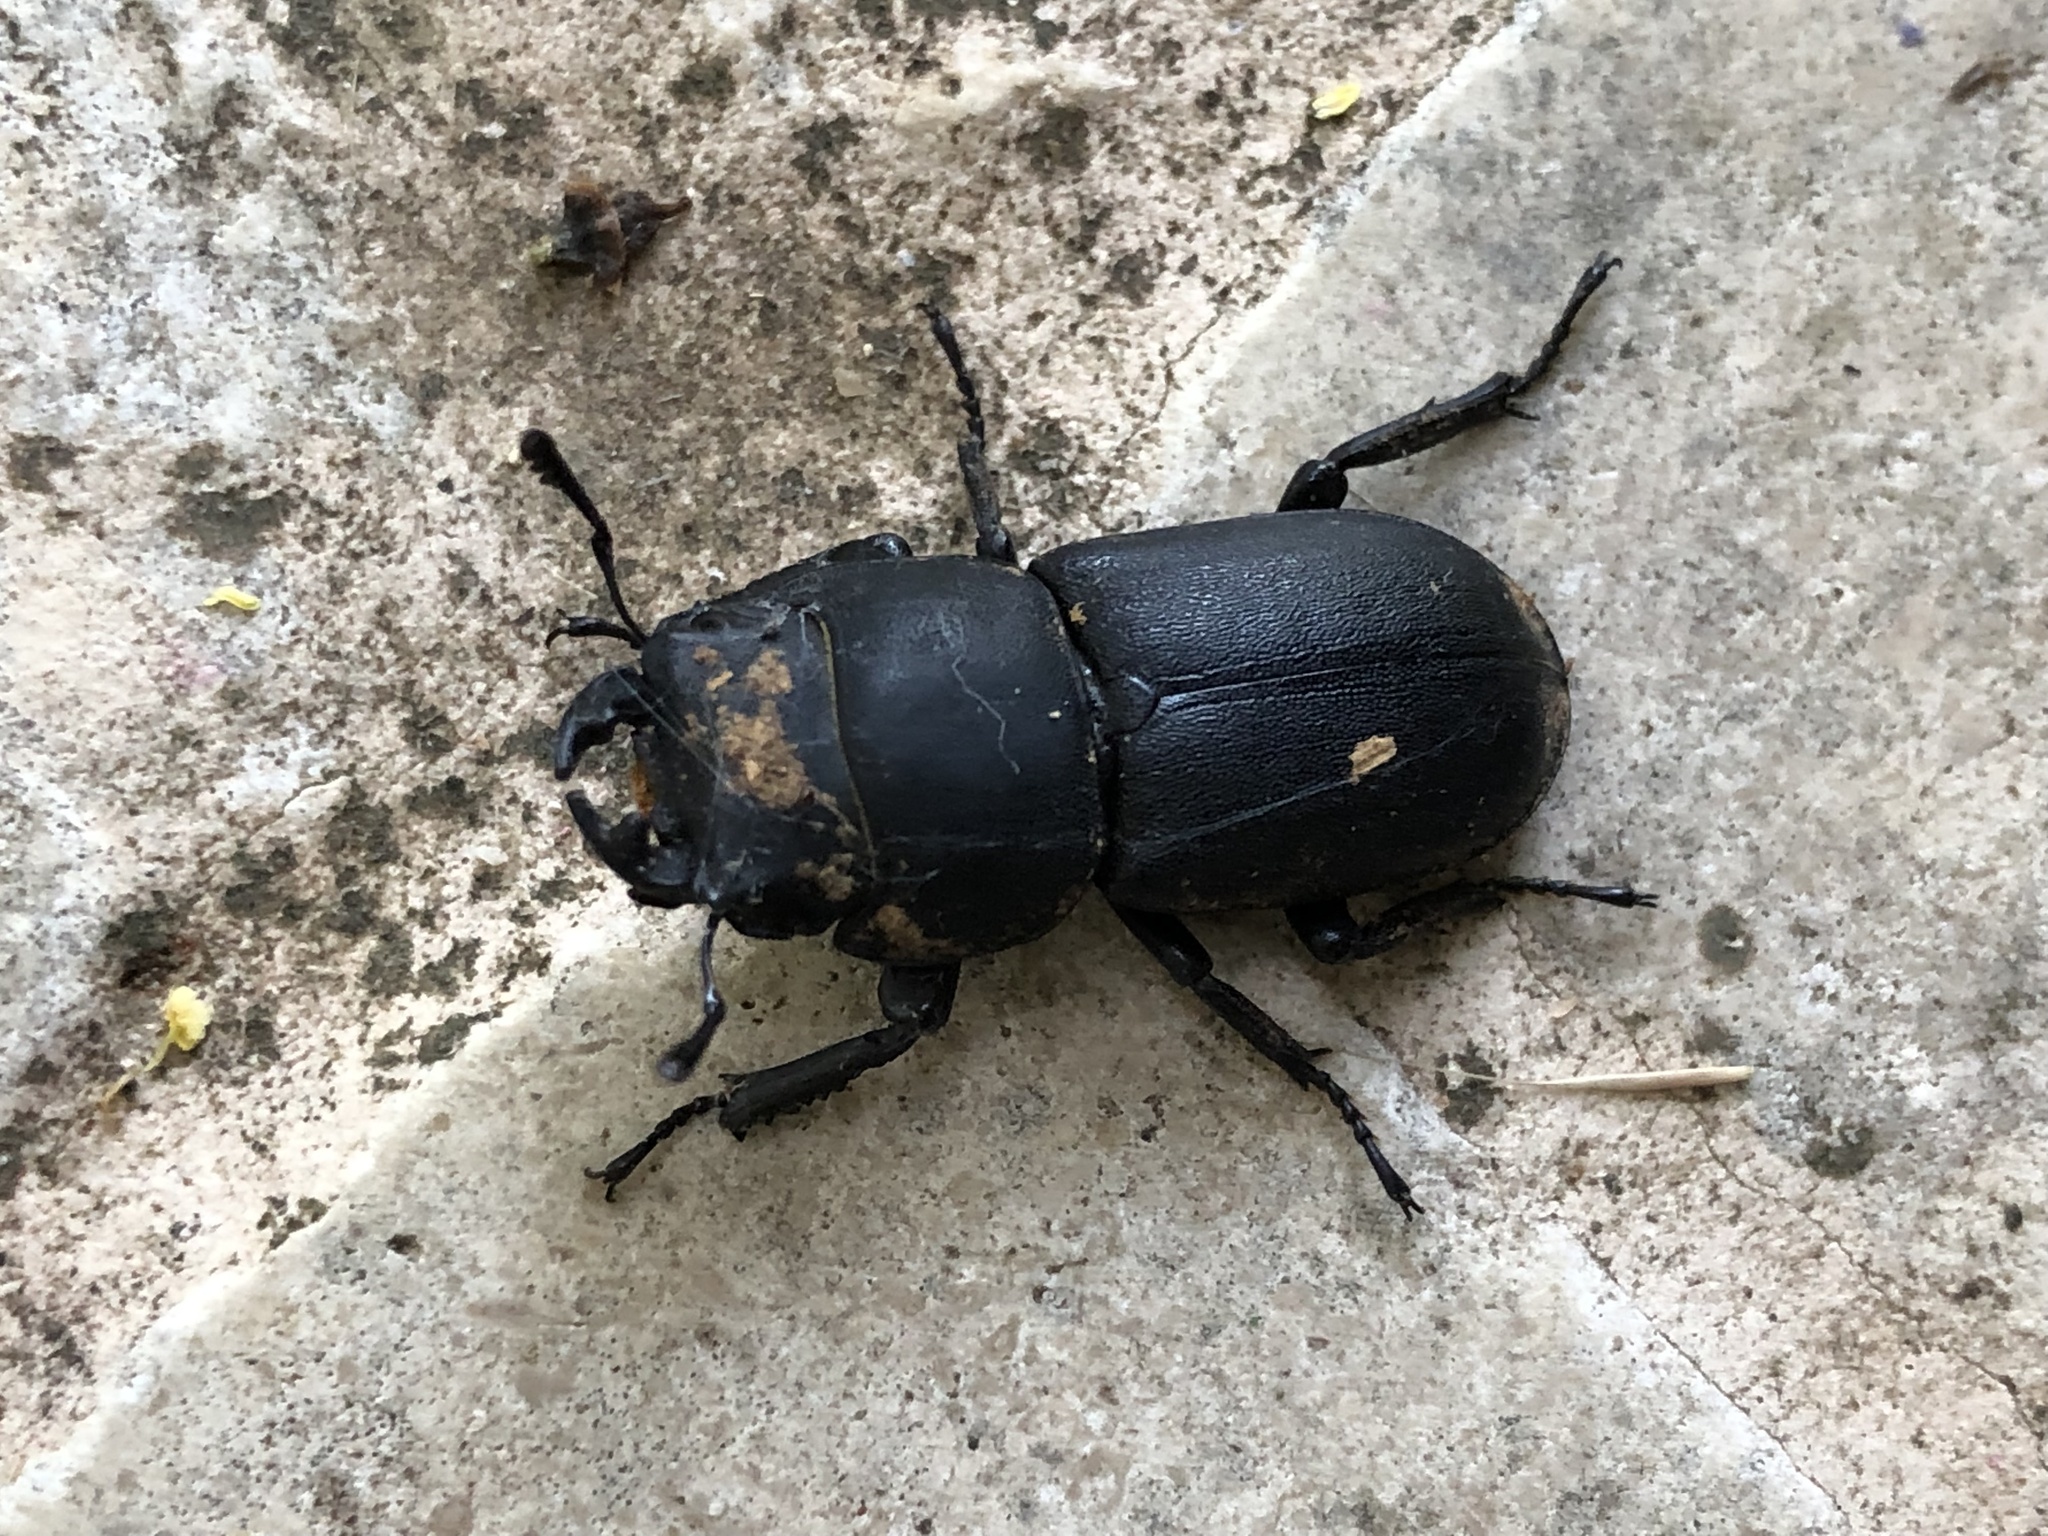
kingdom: Animalia
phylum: Arthropoda
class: Insecta
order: Coleoptera
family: Lucanidae
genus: Dorcus
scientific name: Dorcus parallelipipedus
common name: Lesser stag beetle
